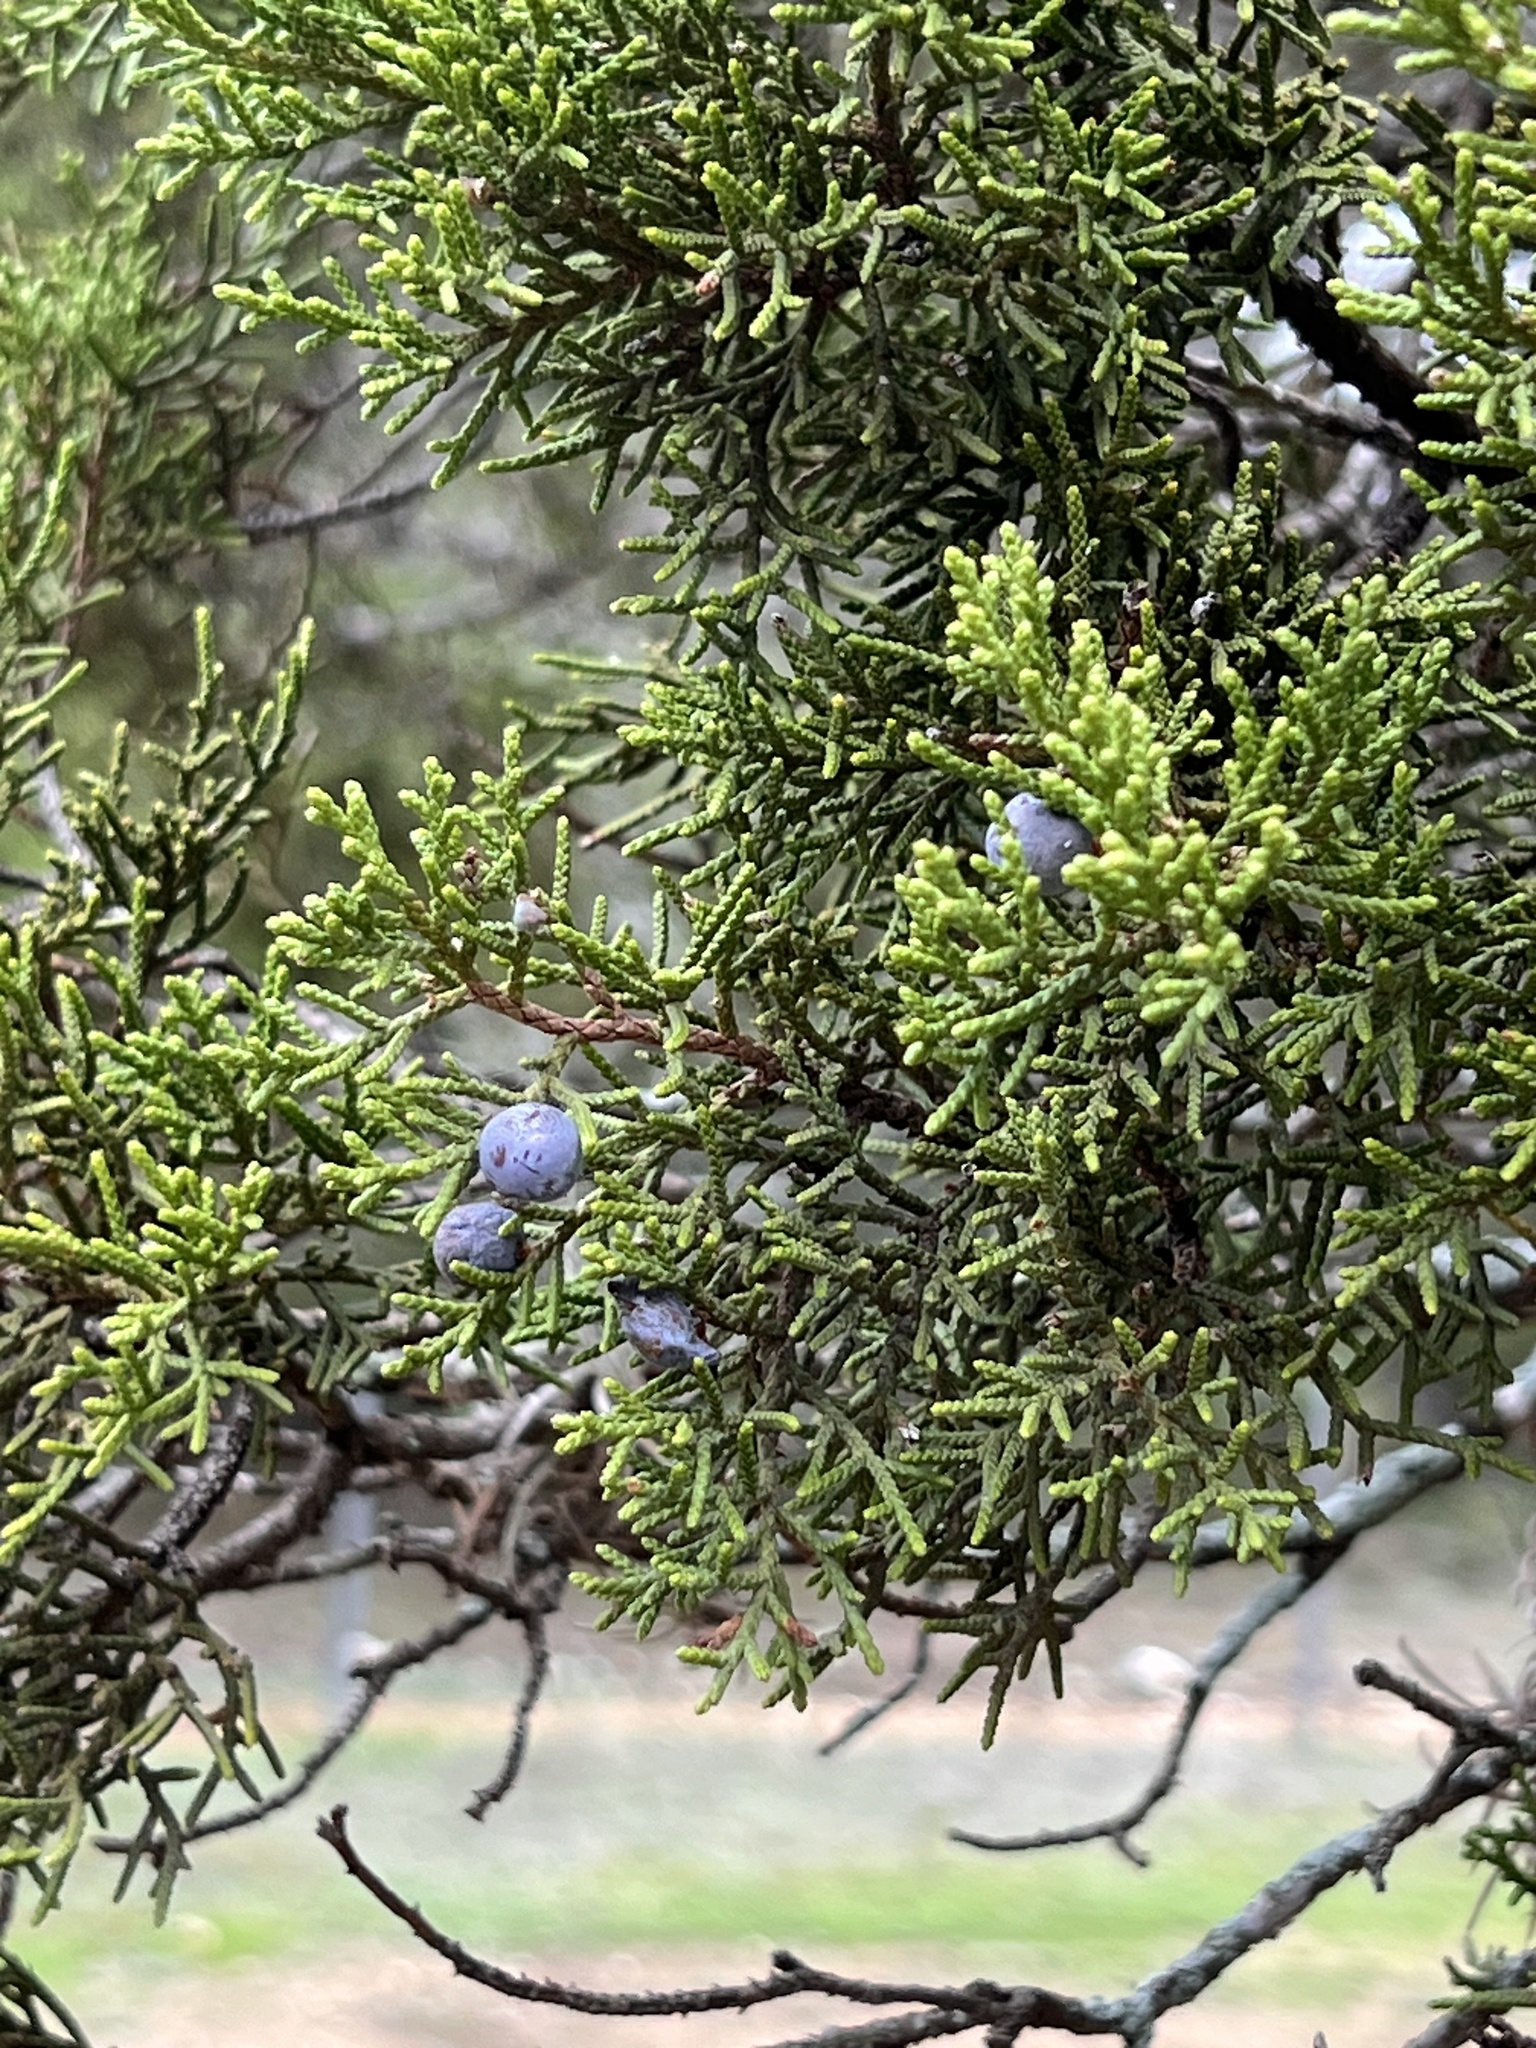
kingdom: Plantae
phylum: Tracheophyta
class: Pinopsida
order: Pinales
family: Cupressaceae
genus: Juniperus
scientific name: Juniperus ashei
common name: Mexican juniper
